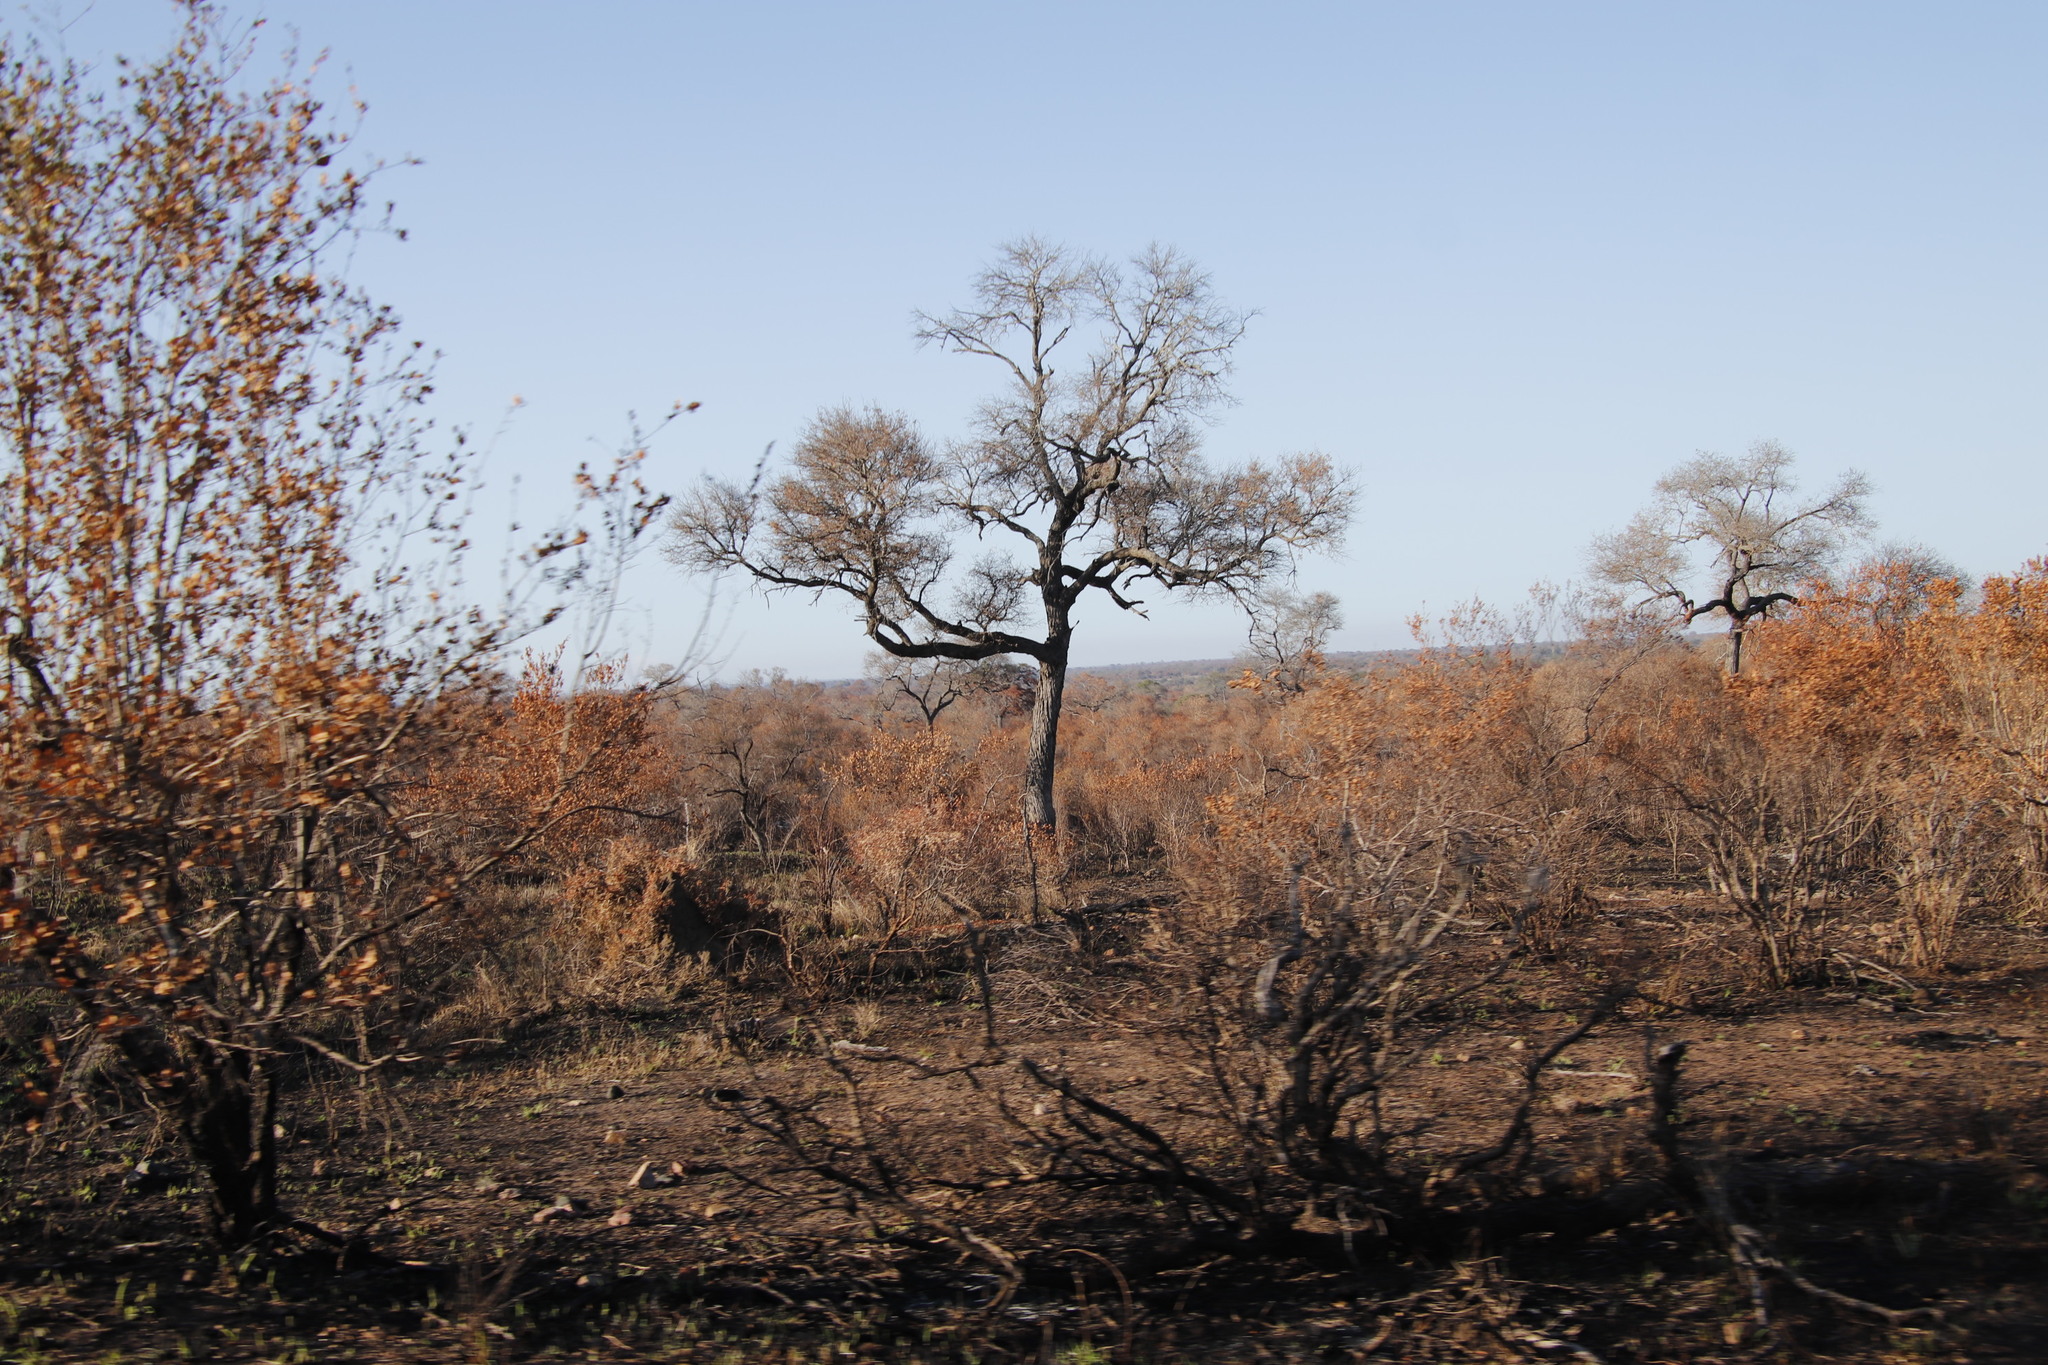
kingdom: Plantae
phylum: Tracheophyta
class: Magnoliopsida
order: Fabales
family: Fabaceae
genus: Senegalia
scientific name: Senegalia nigrescens
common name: Knobthorn
